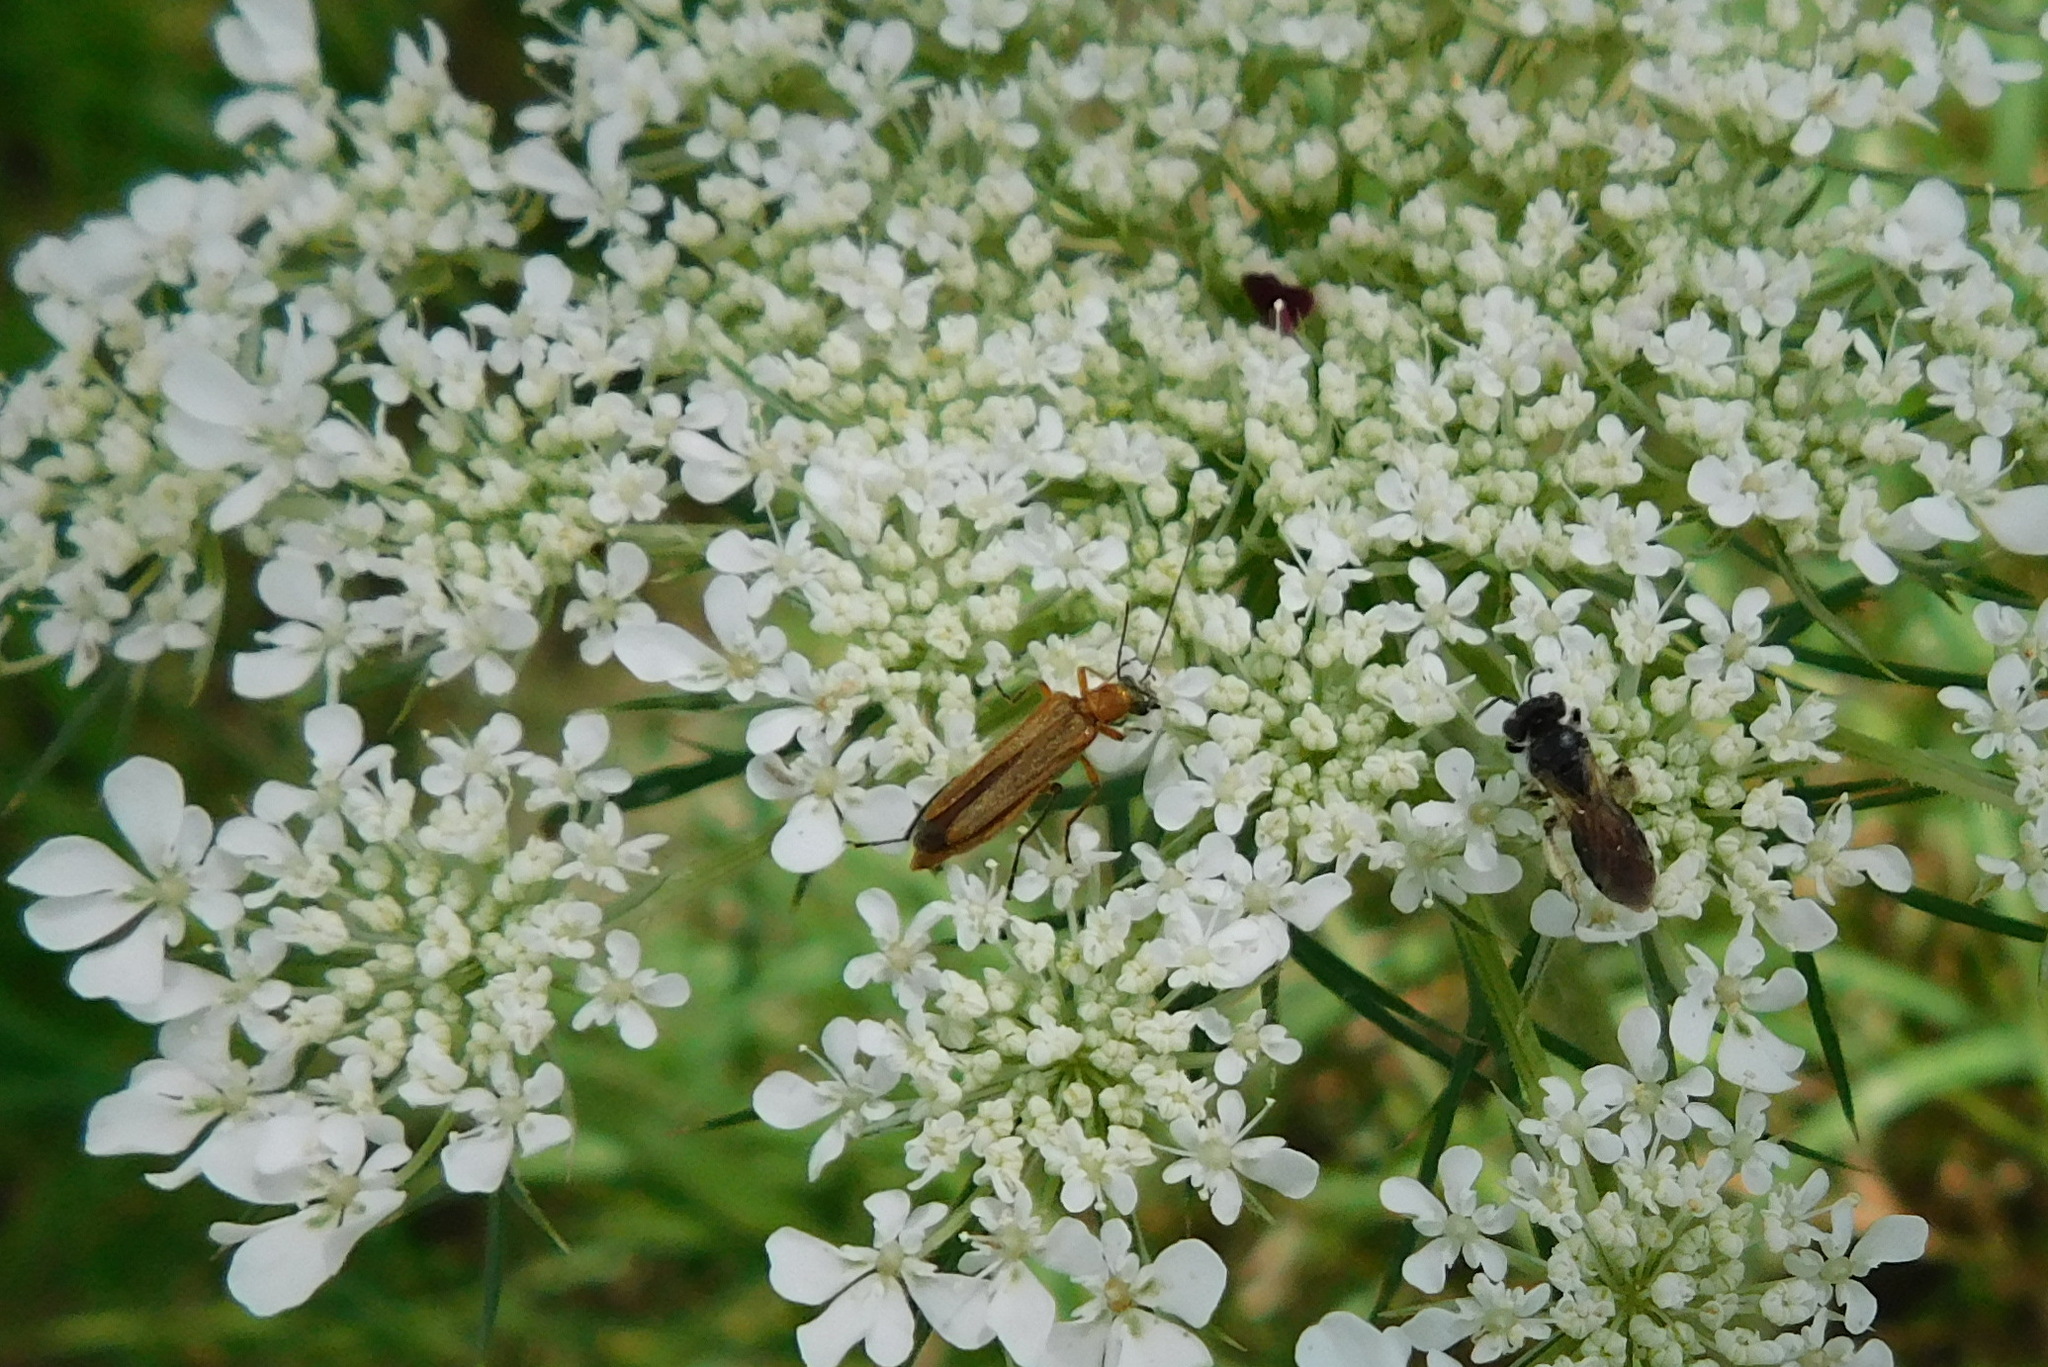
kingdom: Animalia
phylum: Arthropoda
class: Insecta
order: Coleoptera
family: Oedemeridae
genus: Oedemera
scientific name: Oedemera podagrariae
